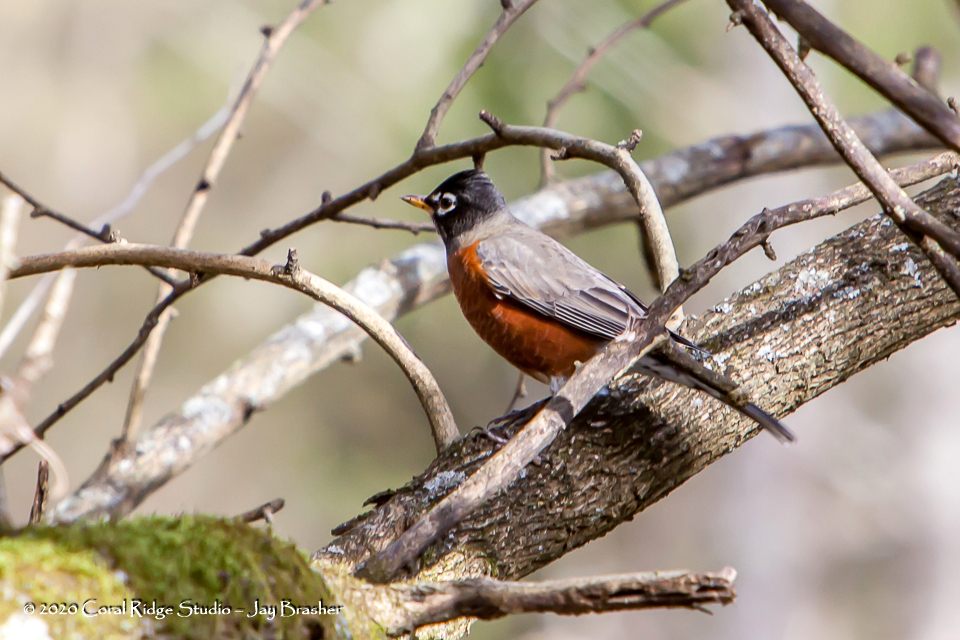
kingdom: Animalia
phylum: Chordata
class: Aves
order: Passeriformes
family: Turdidae
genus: Turdus
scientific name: Turdus migratorius
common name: American robin
